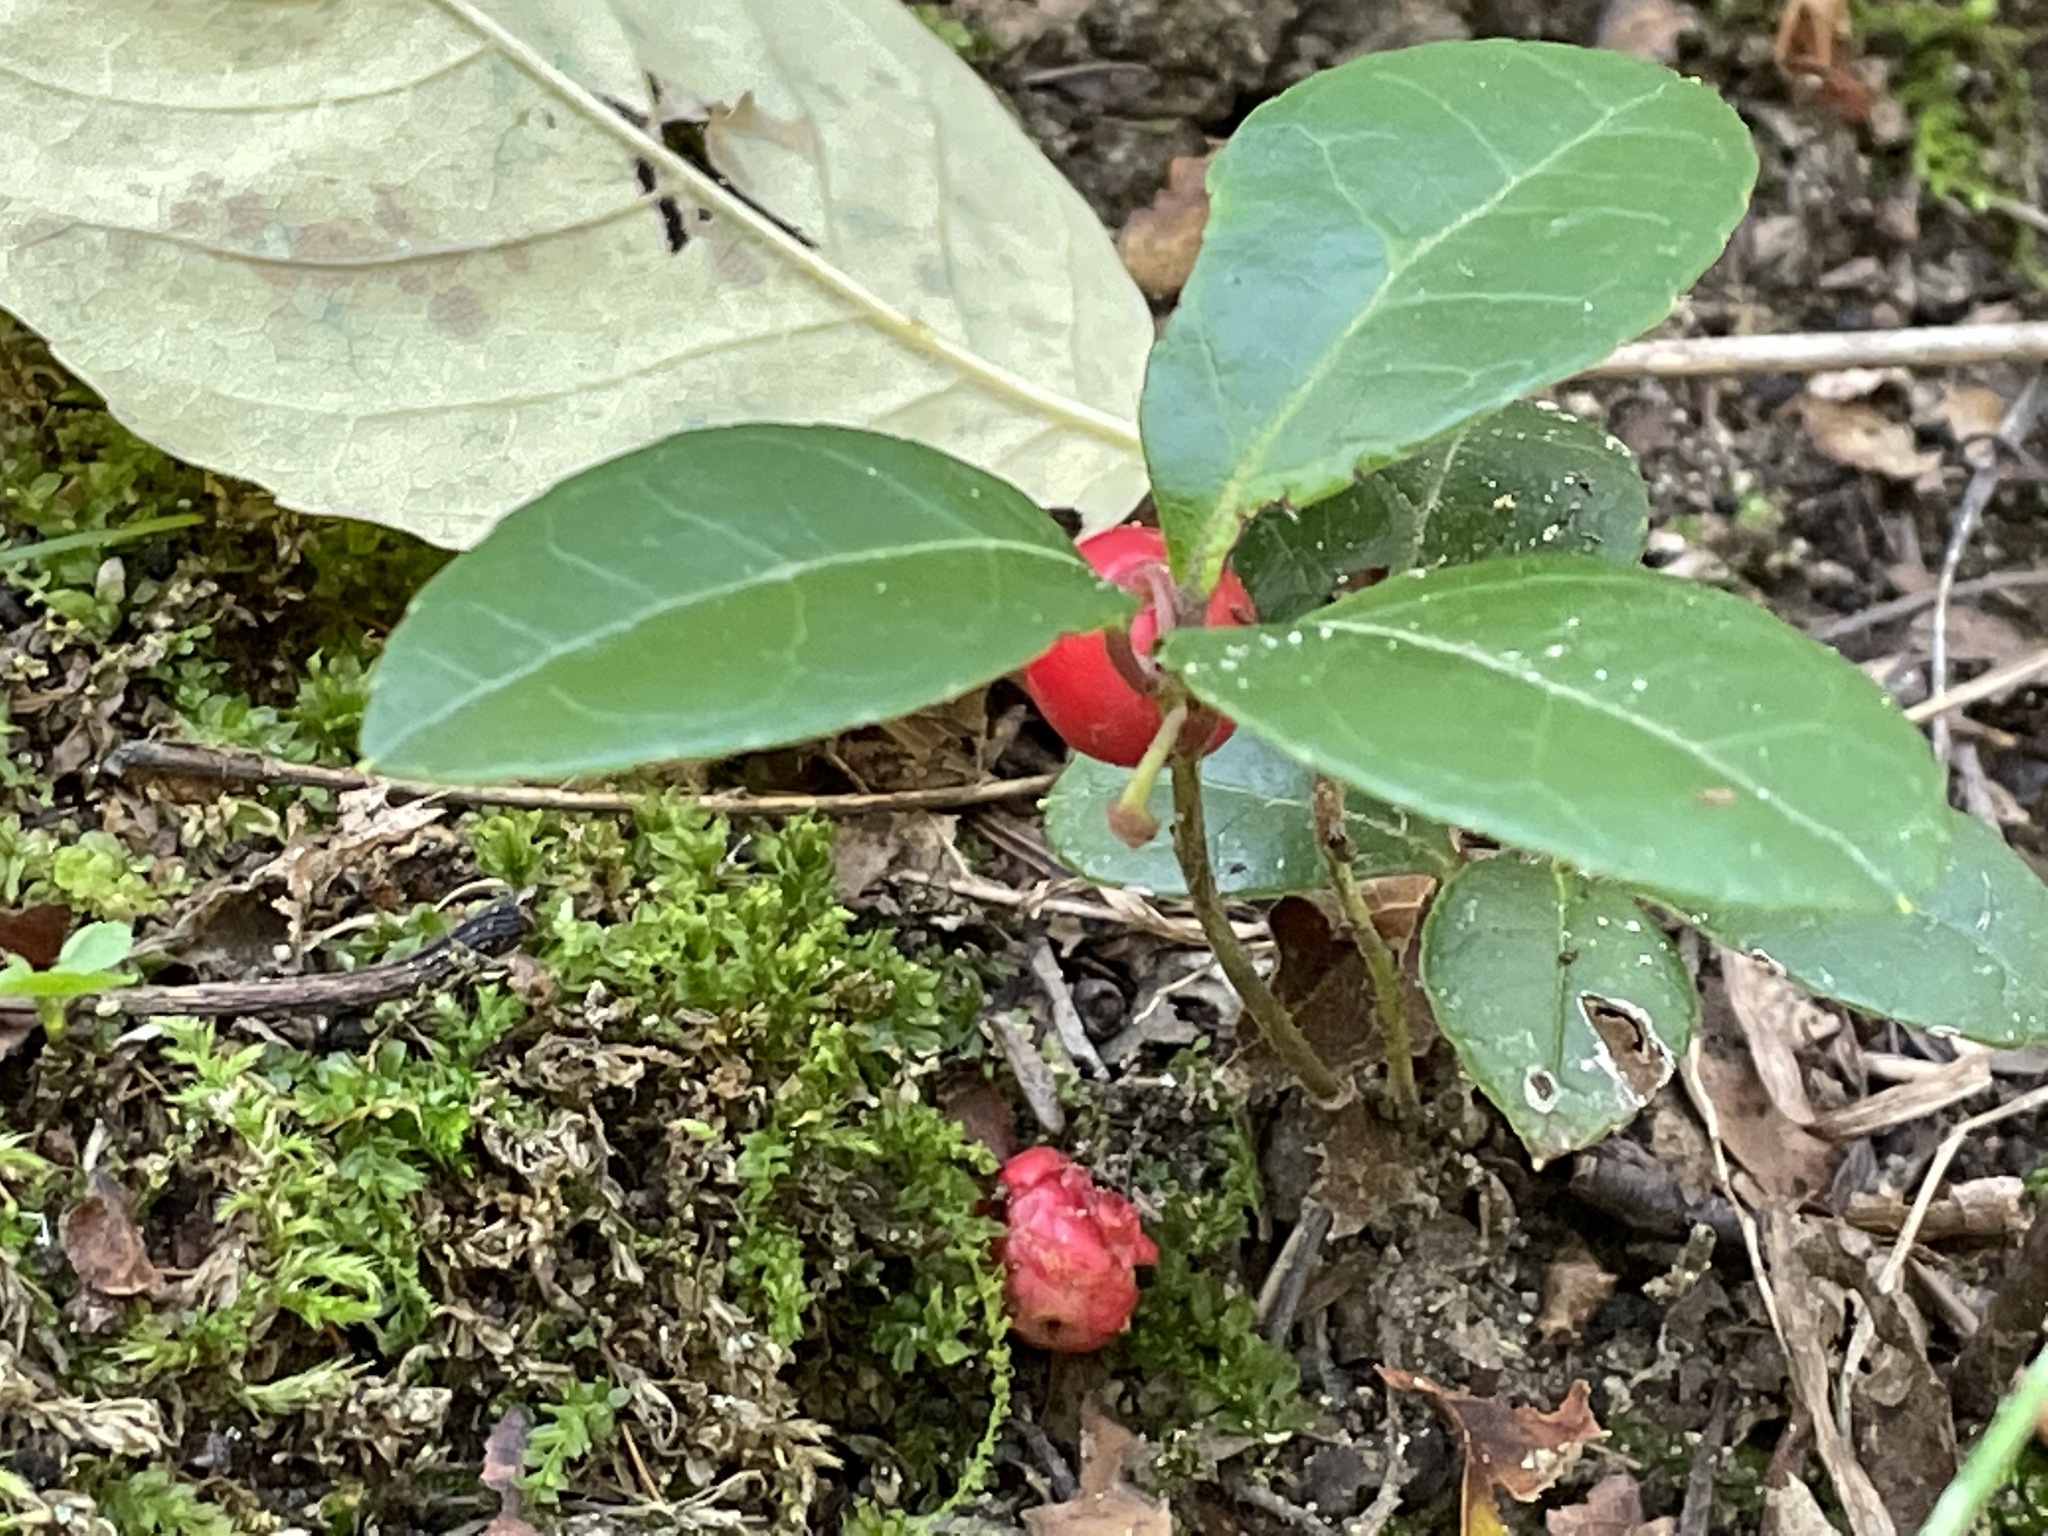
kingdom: Plantae
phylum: Tracheophyta
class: Magnoliopsida
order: Ericales
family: Ericaceae
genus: Gaultheria
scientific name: Gaultheria procumbens
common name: Checkerberry
